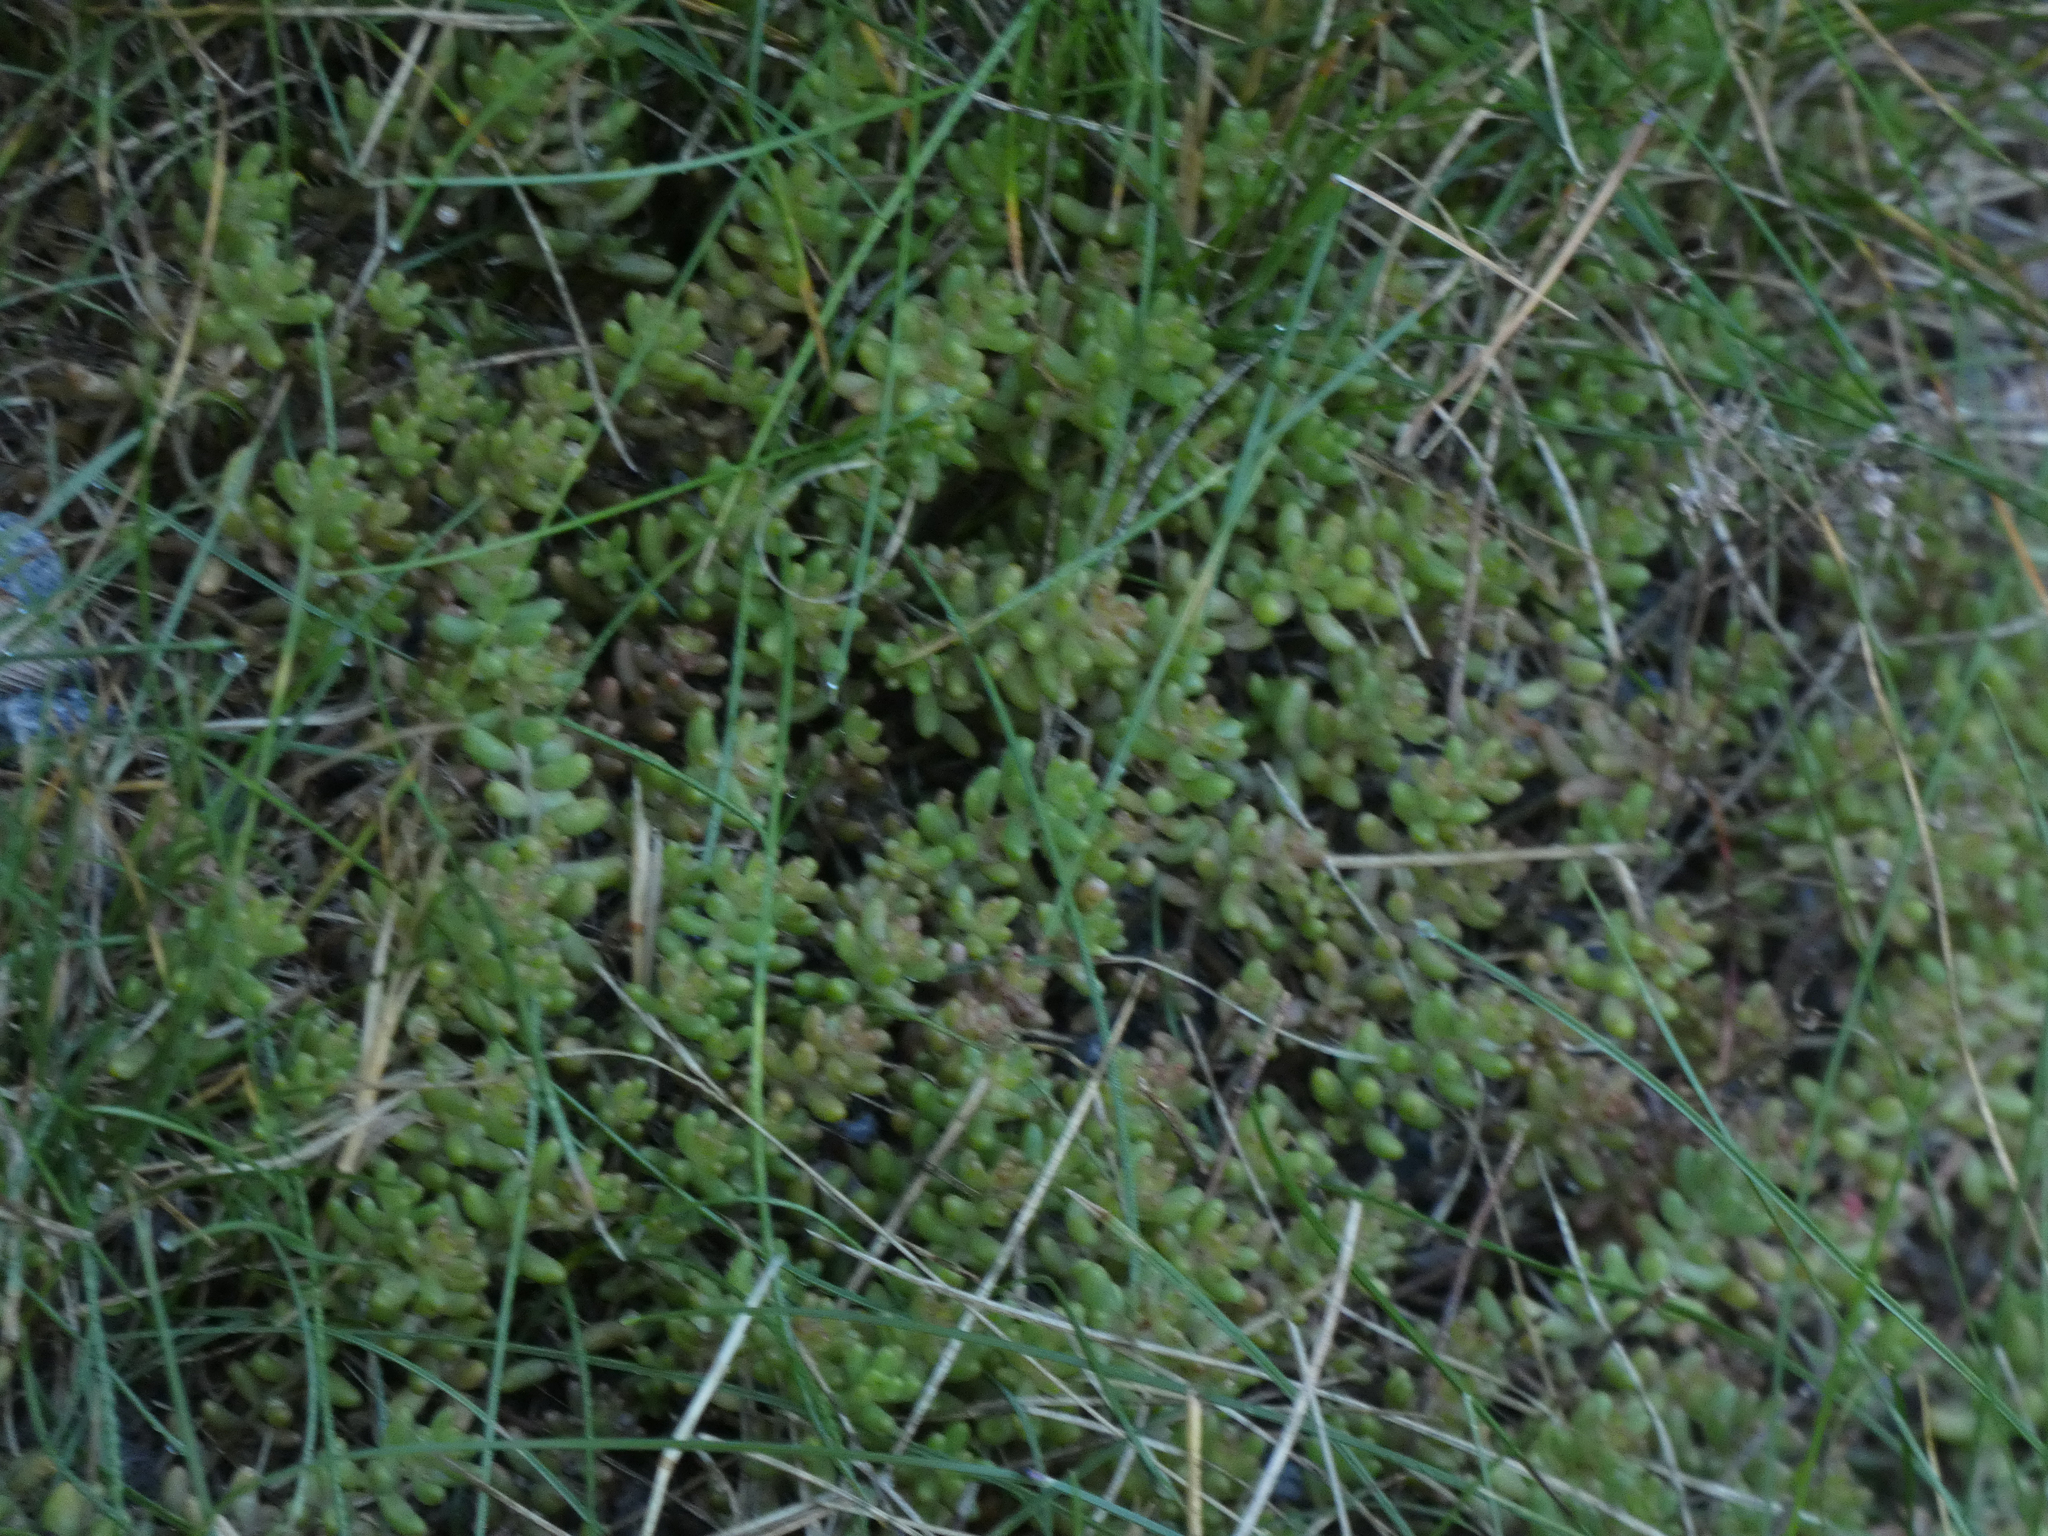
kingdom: Plantae
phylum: Tracheophyta
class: Magnoliopsida
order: Saxifragales
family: Crassulaceae
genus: Sedum
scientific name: Sedum album
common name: White stonecrop
